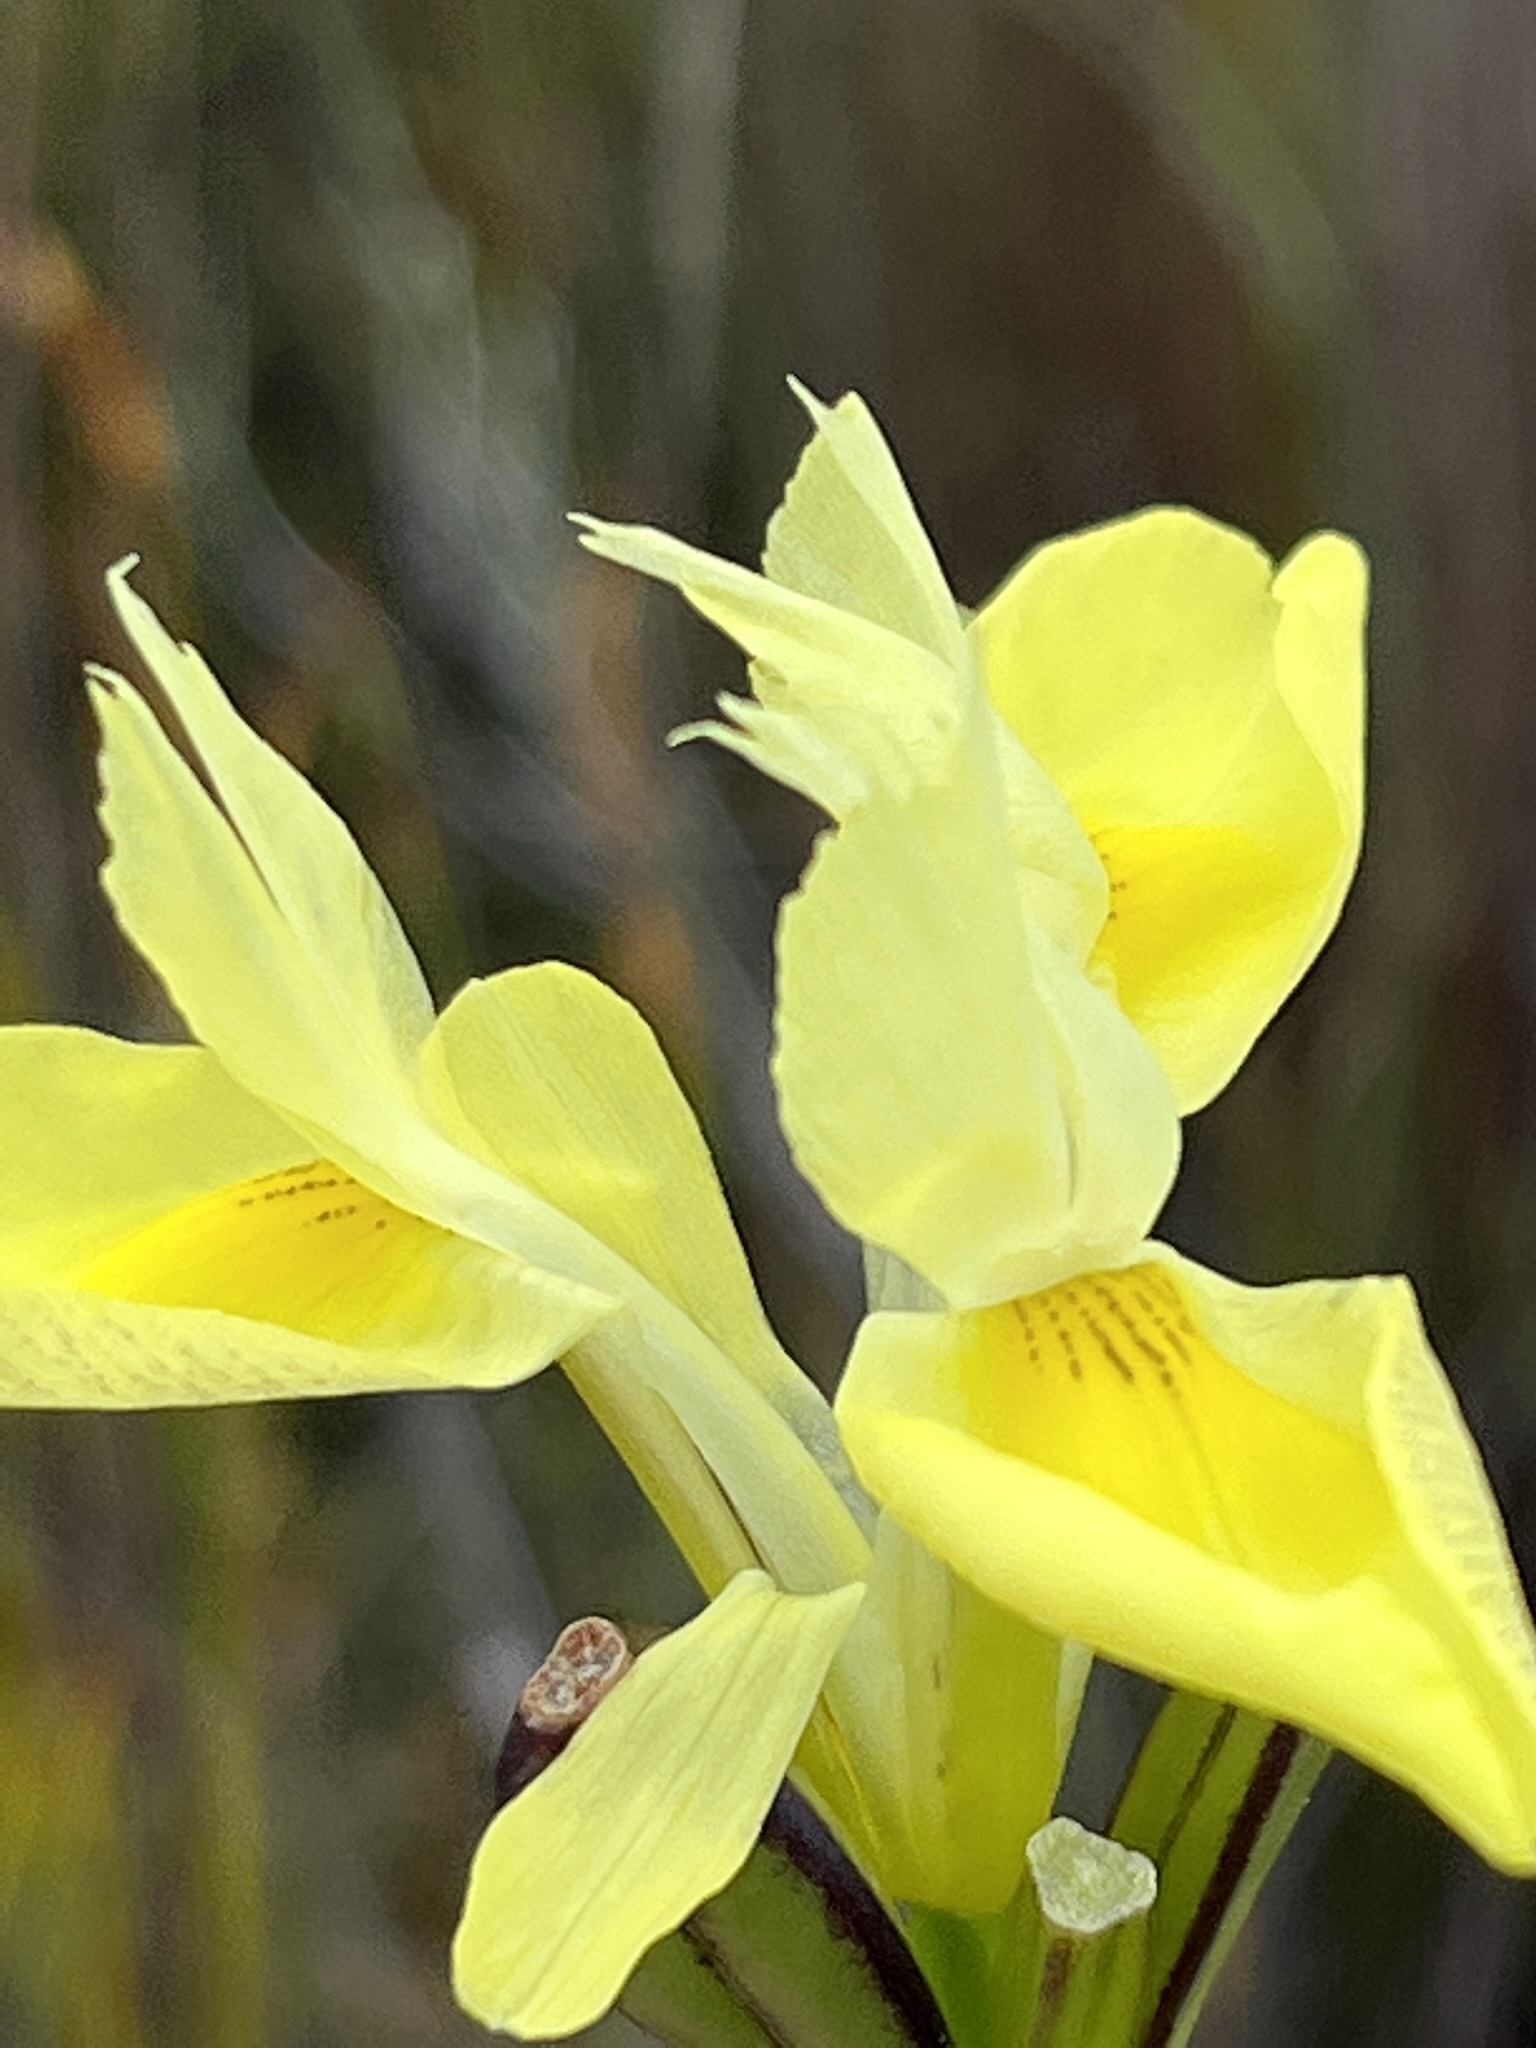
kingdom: Plantae
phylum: Tracheophyta
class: Liliopsida
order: Asparagales
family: Iridaceae
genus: Moraea
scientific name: Moraea neglecta
